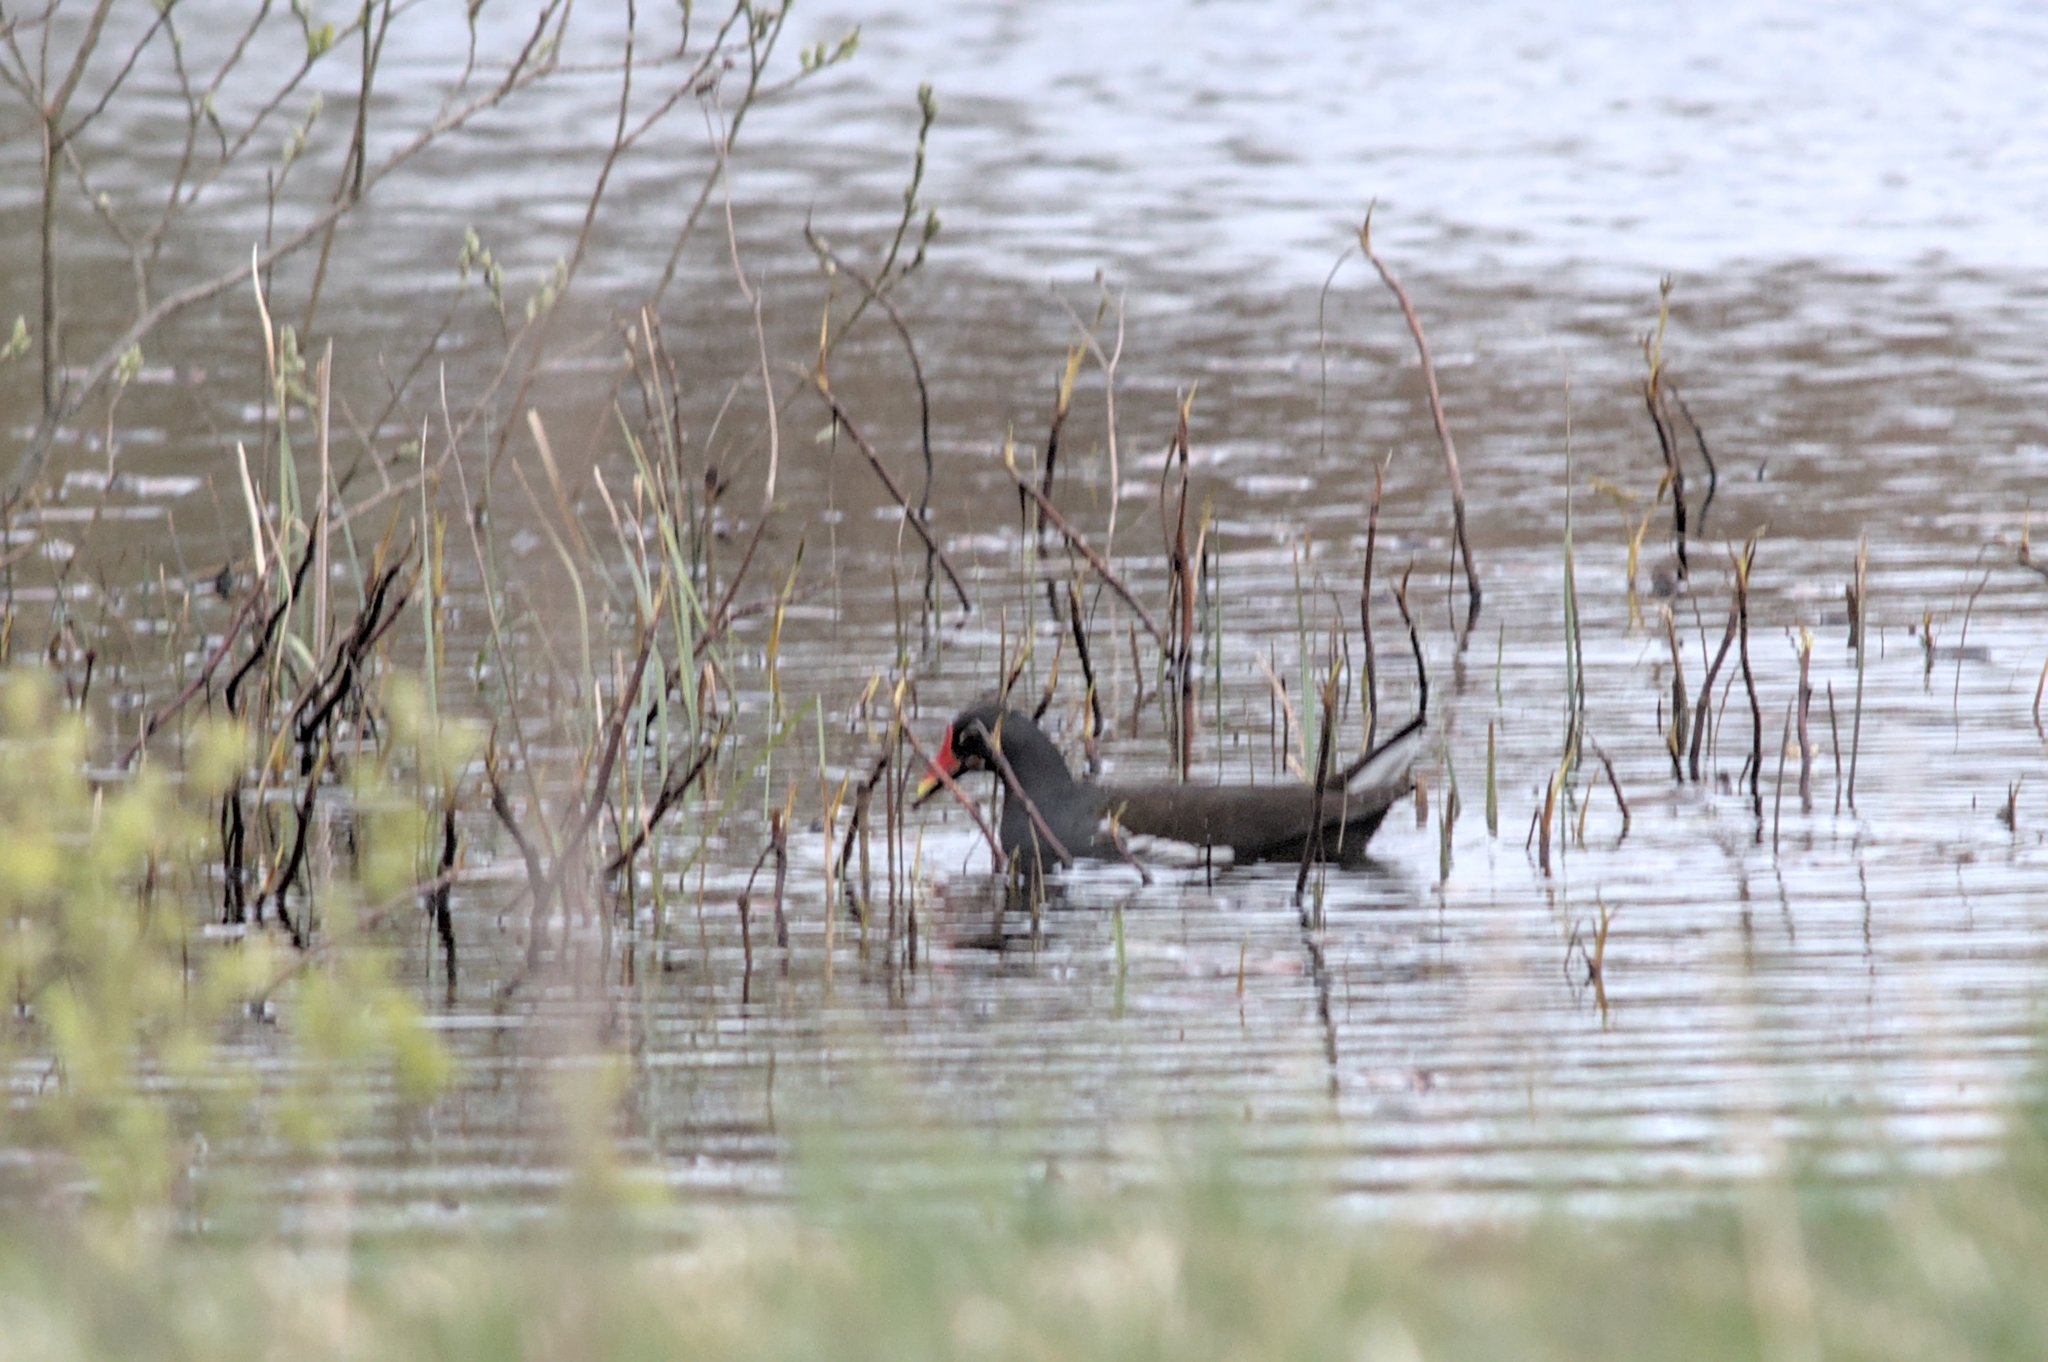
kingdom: Animalia
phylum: Chordata
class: Aves
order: Gruiformes
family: Rallidae
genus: Gallinula
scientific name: Gallinula chloropus
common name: Common moorhen
